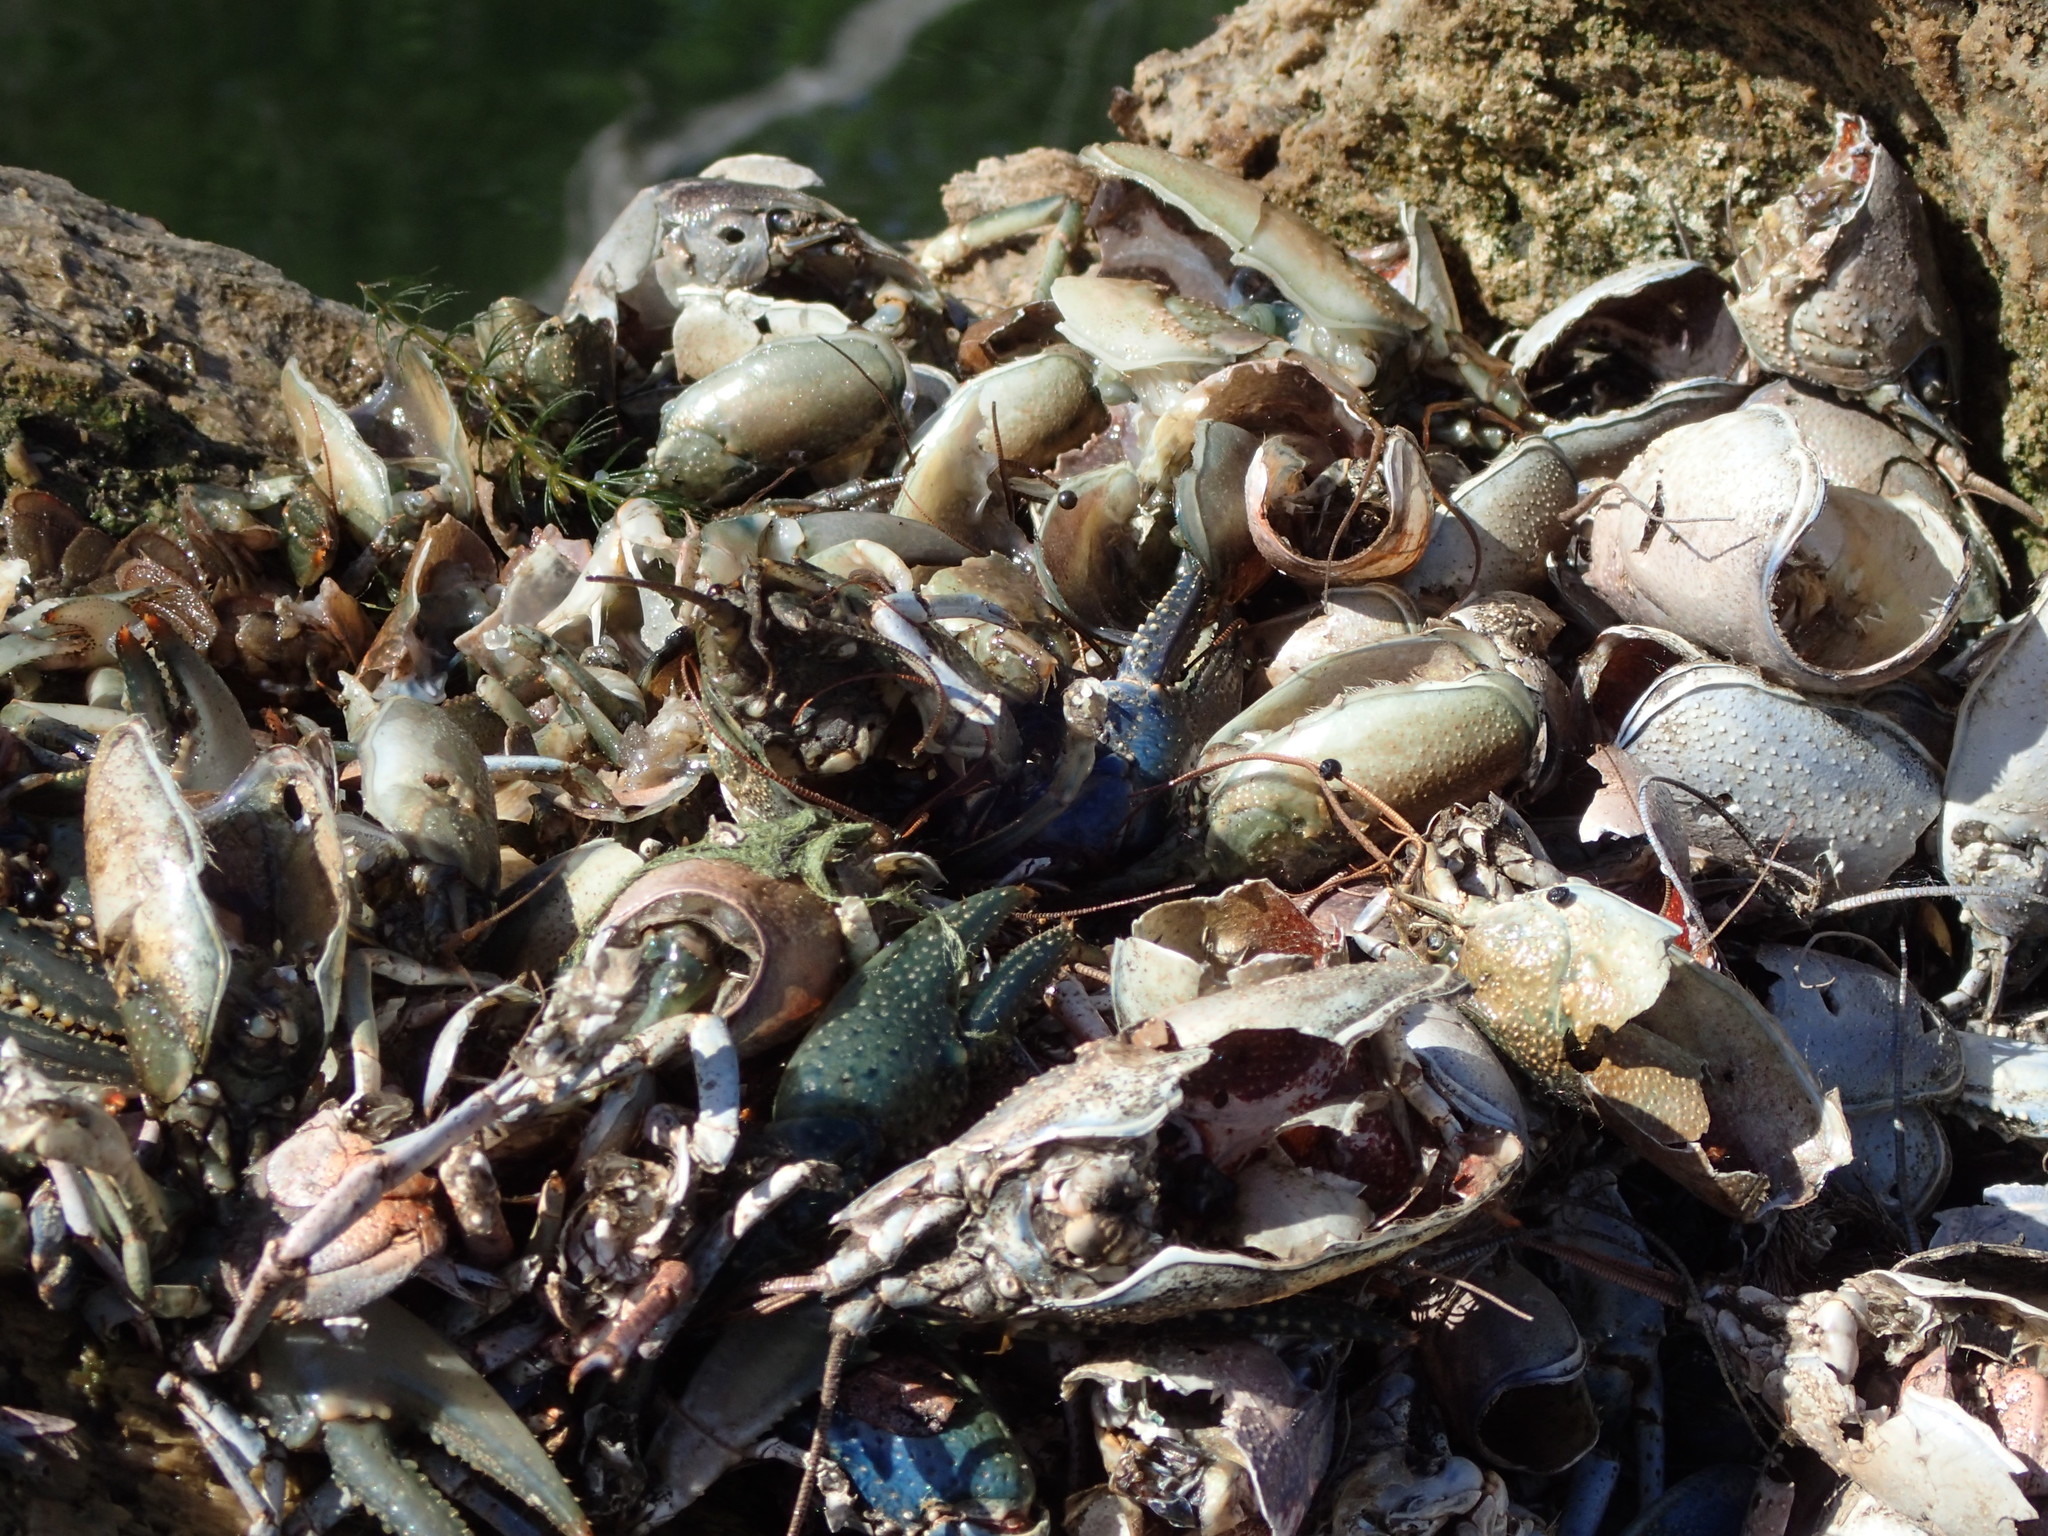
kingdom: Animalia
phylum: Arthropoda
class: Malacostraca
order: Decapoda
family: Cambaridae
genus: Faxonius
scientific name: Faxonius virilis
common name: Virile crayfish
